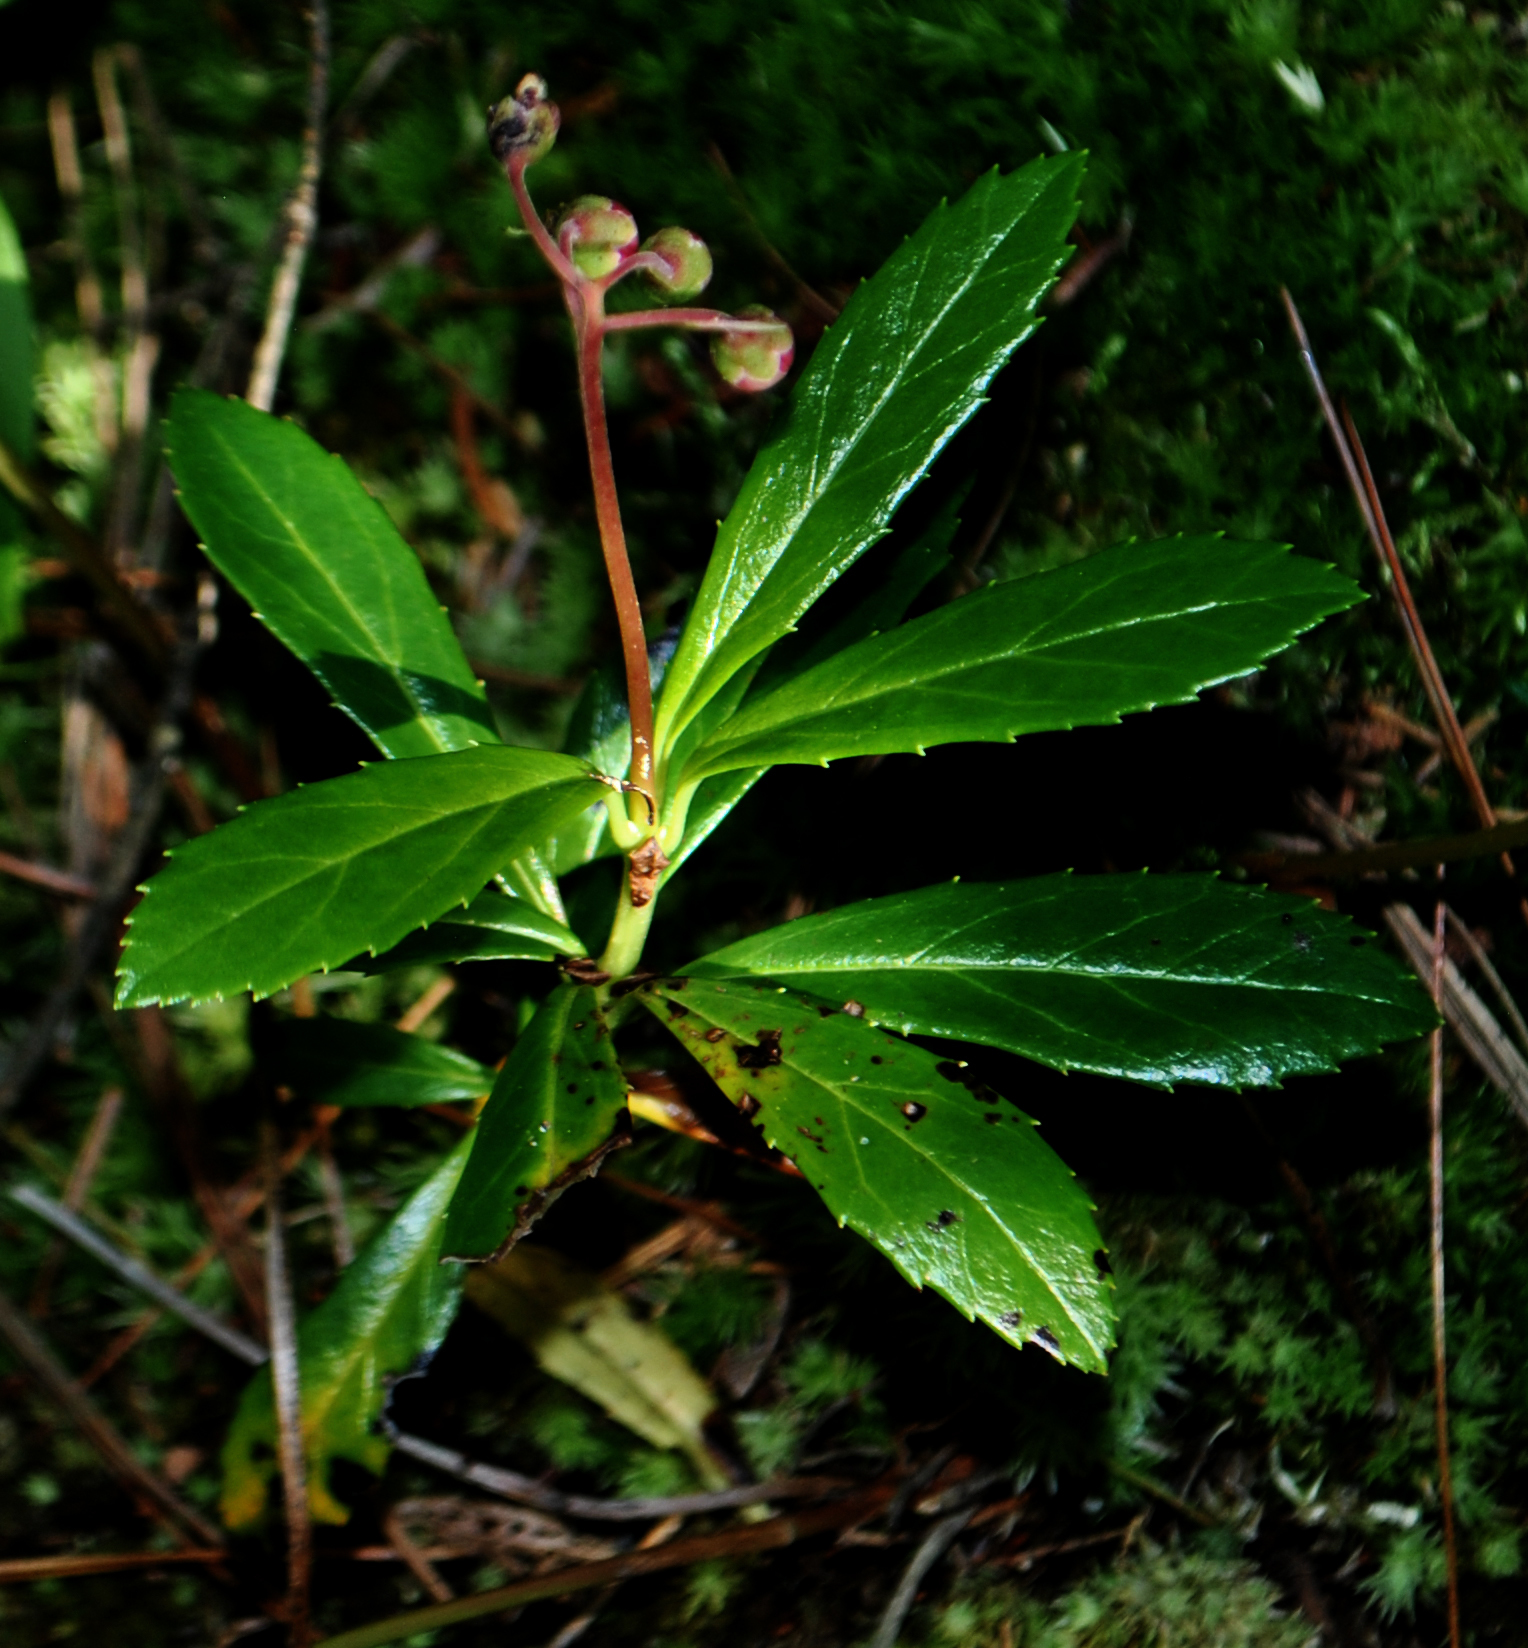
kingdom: Plantae
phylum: Tracheophyta
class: Magnoliopsida
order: Ericales
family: Ericaceae
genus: Chimaphila
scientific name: Chimaphila umbellata
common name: Pipsissewa
